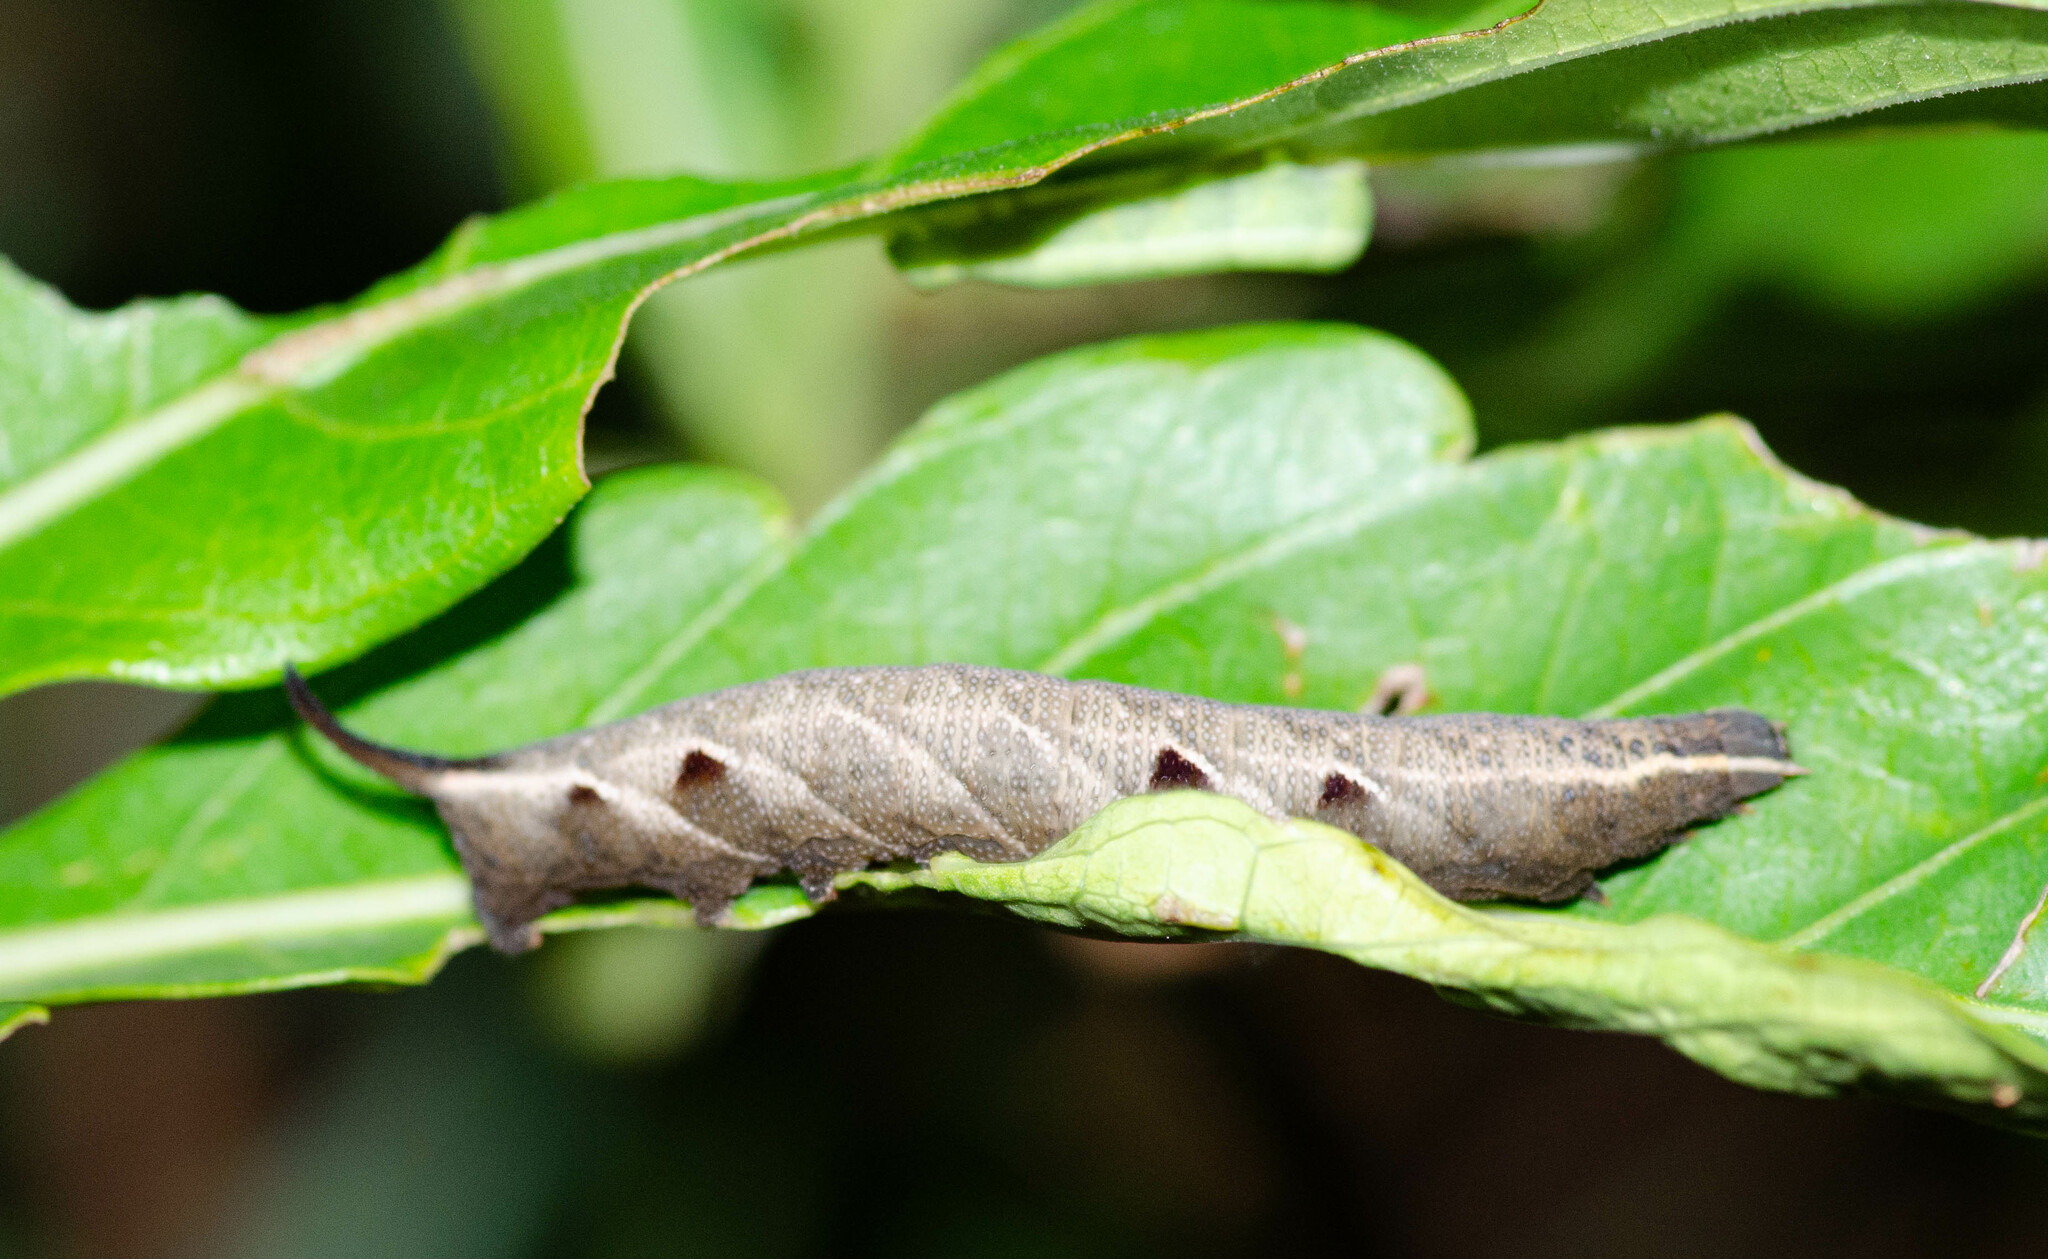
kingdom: Animalia
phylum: Arthropoda
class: Insecta
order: Lepidoptera
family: Sphingidae
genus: Neogurelca
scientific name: Neogurelca hyas
